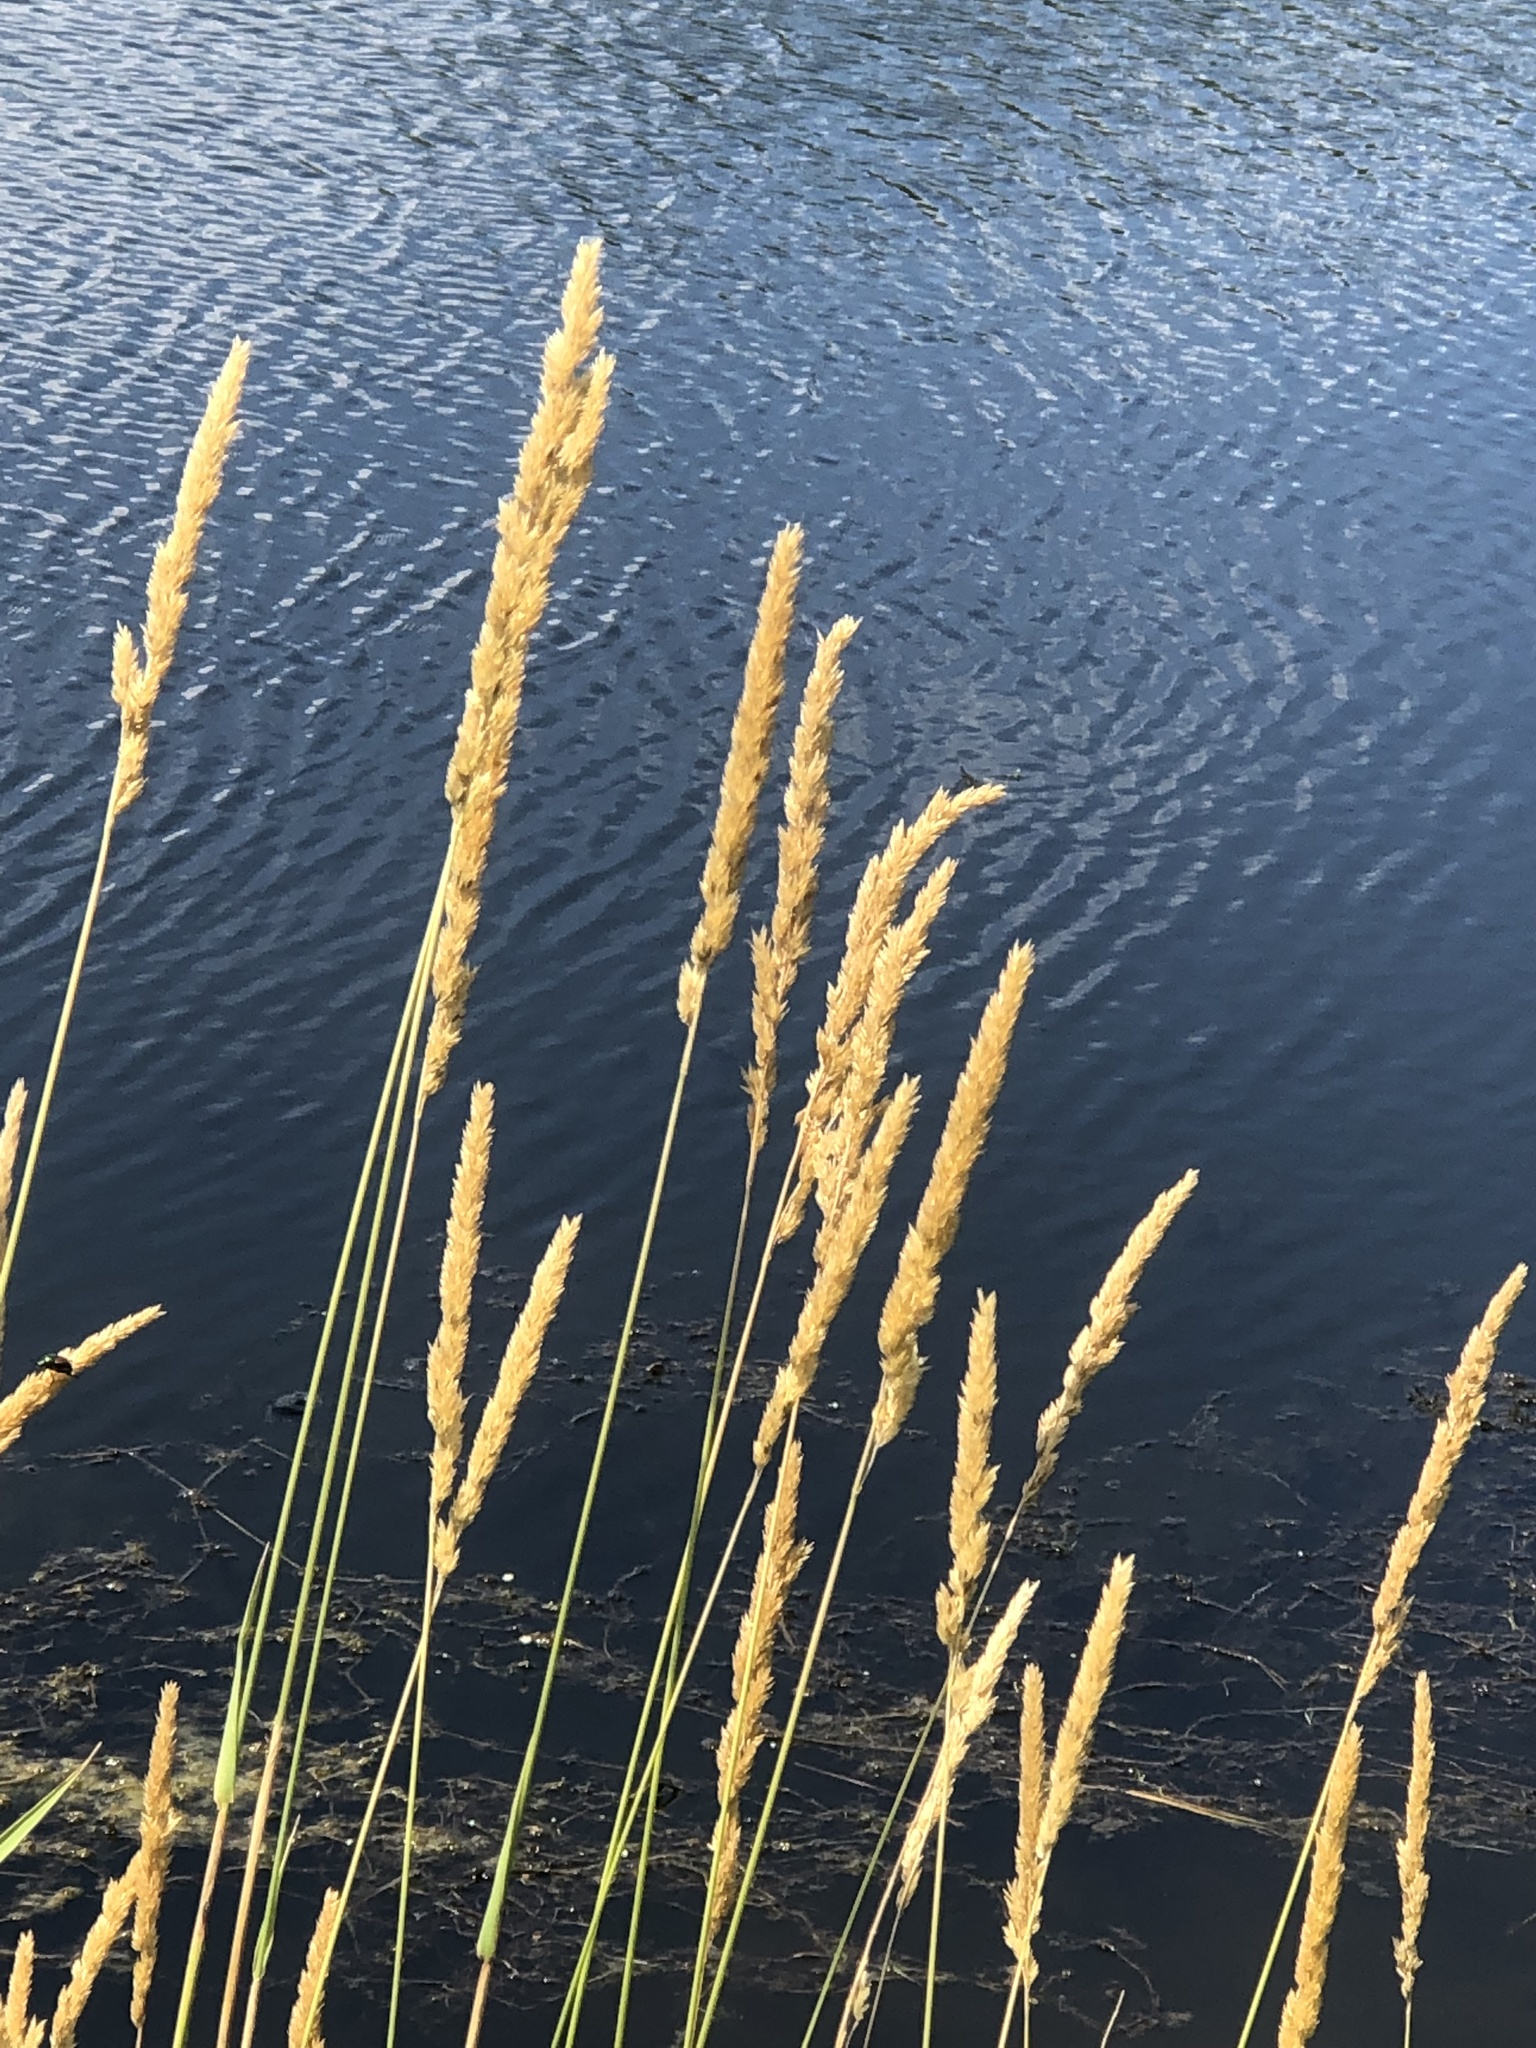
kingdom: Plantae
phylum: Tracheophyta
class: Liliopsida
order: Poales
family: Poaceae
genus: Phalaris
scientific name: Phalaris arundinacea
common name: Reed canary-grass
